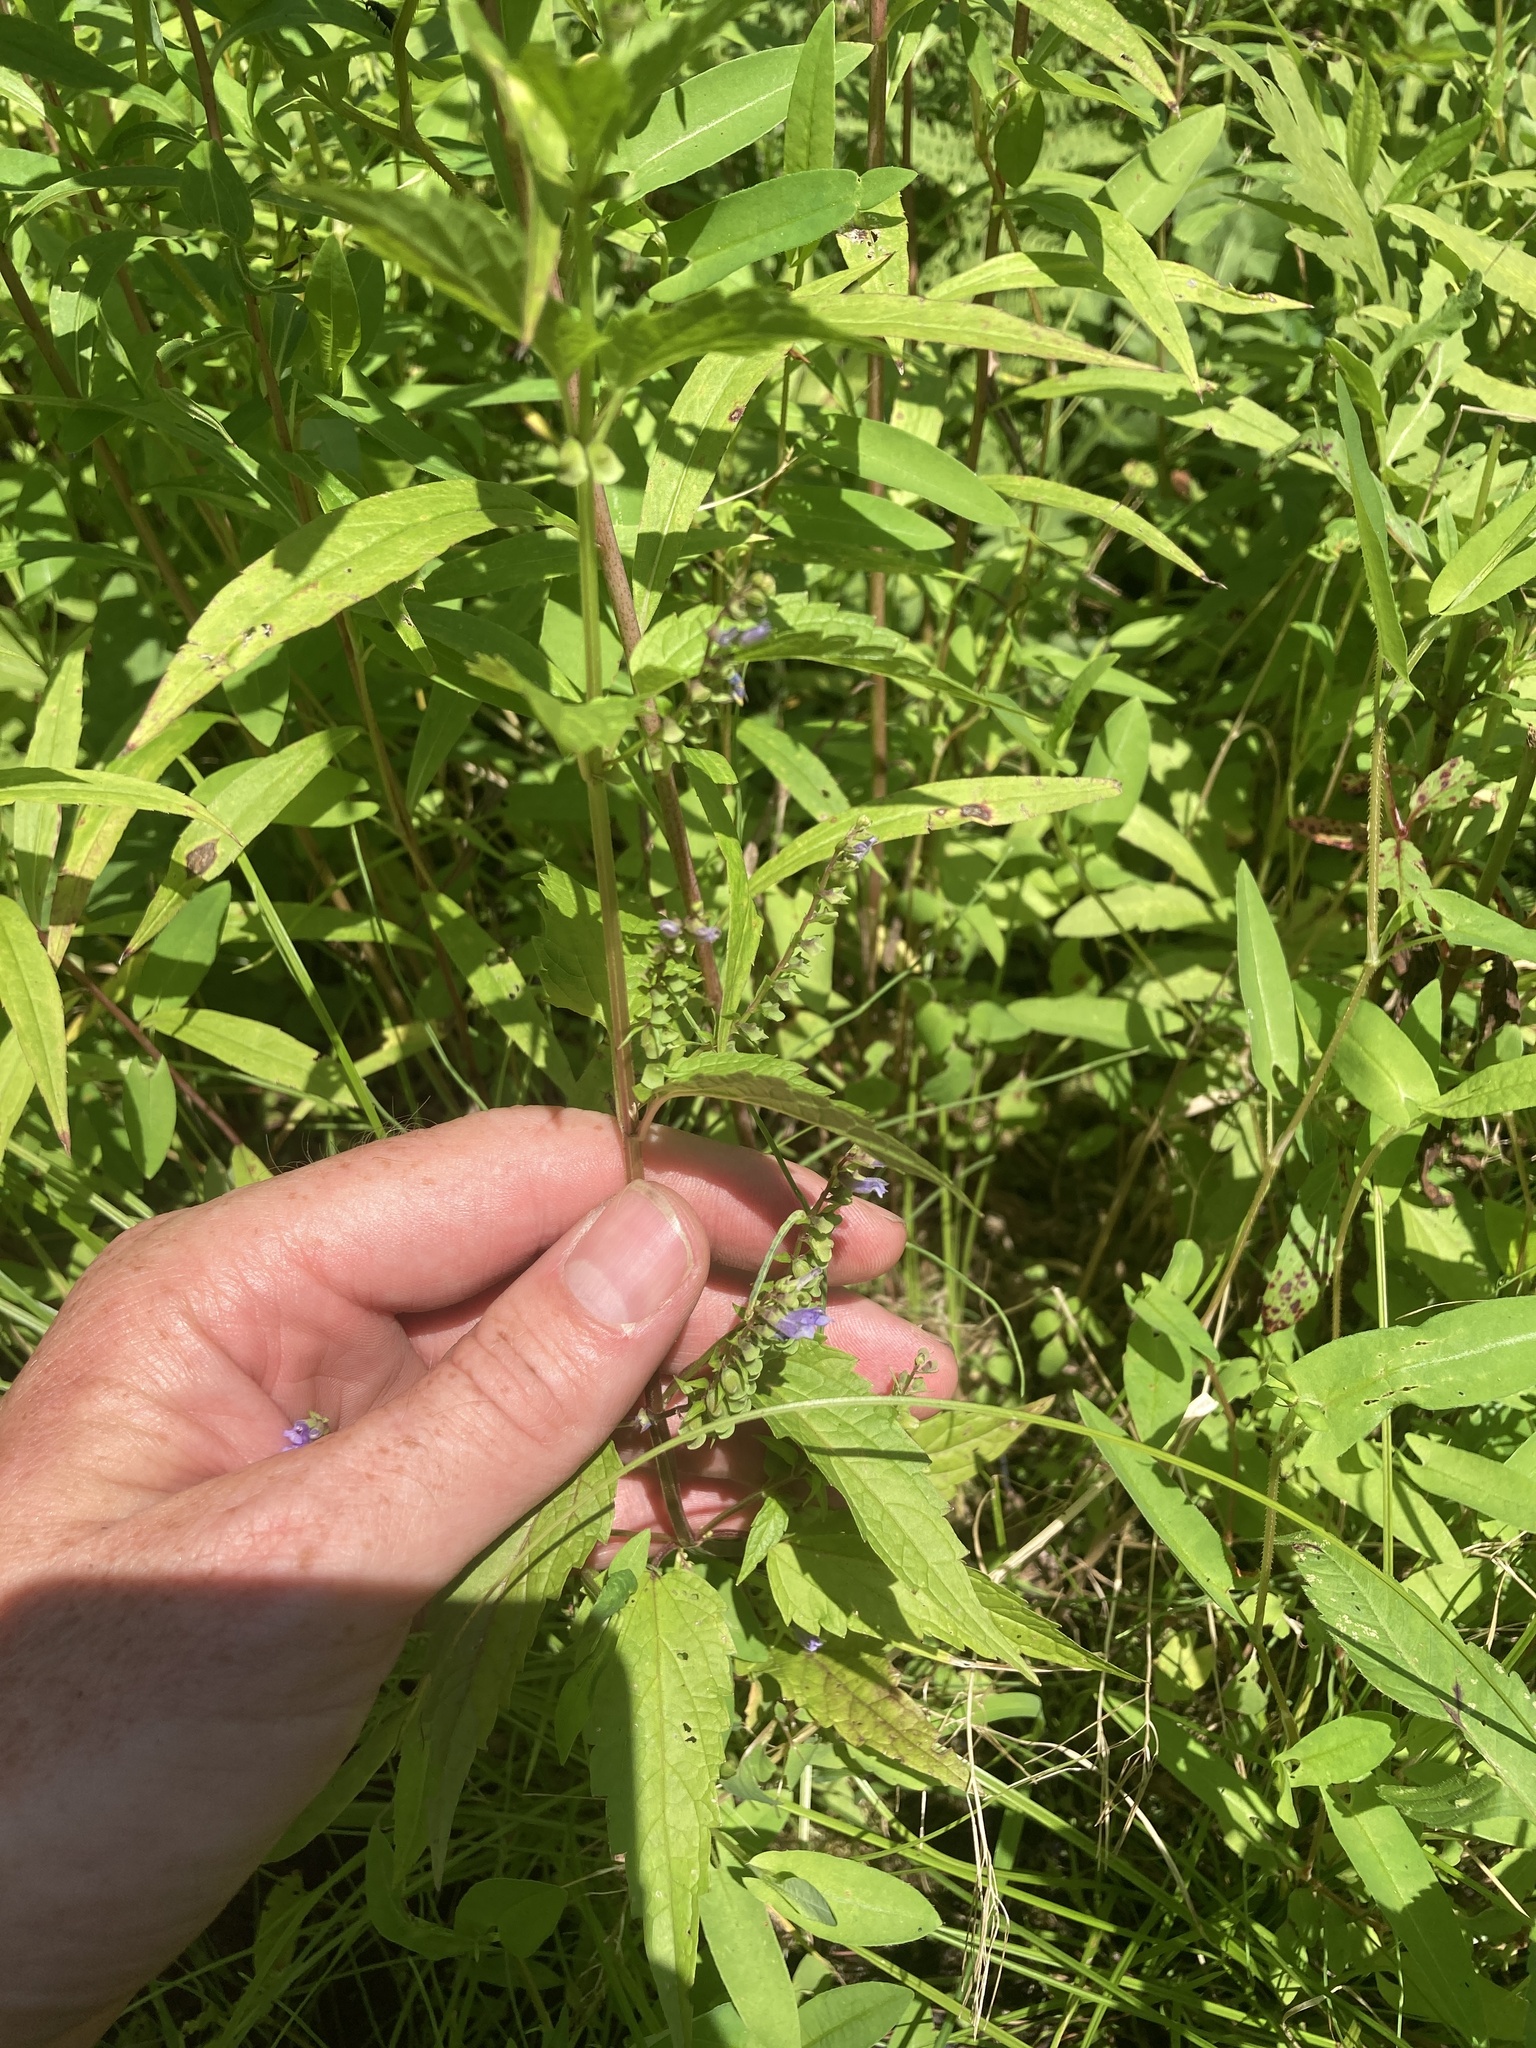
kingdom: Plantae
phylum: Tracheophyta
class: Magnoliopsida
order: Lamiales
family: Lamiaceae
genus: Scutellaria
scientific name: Scutellaria lateriflora
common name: Blue skullcap
